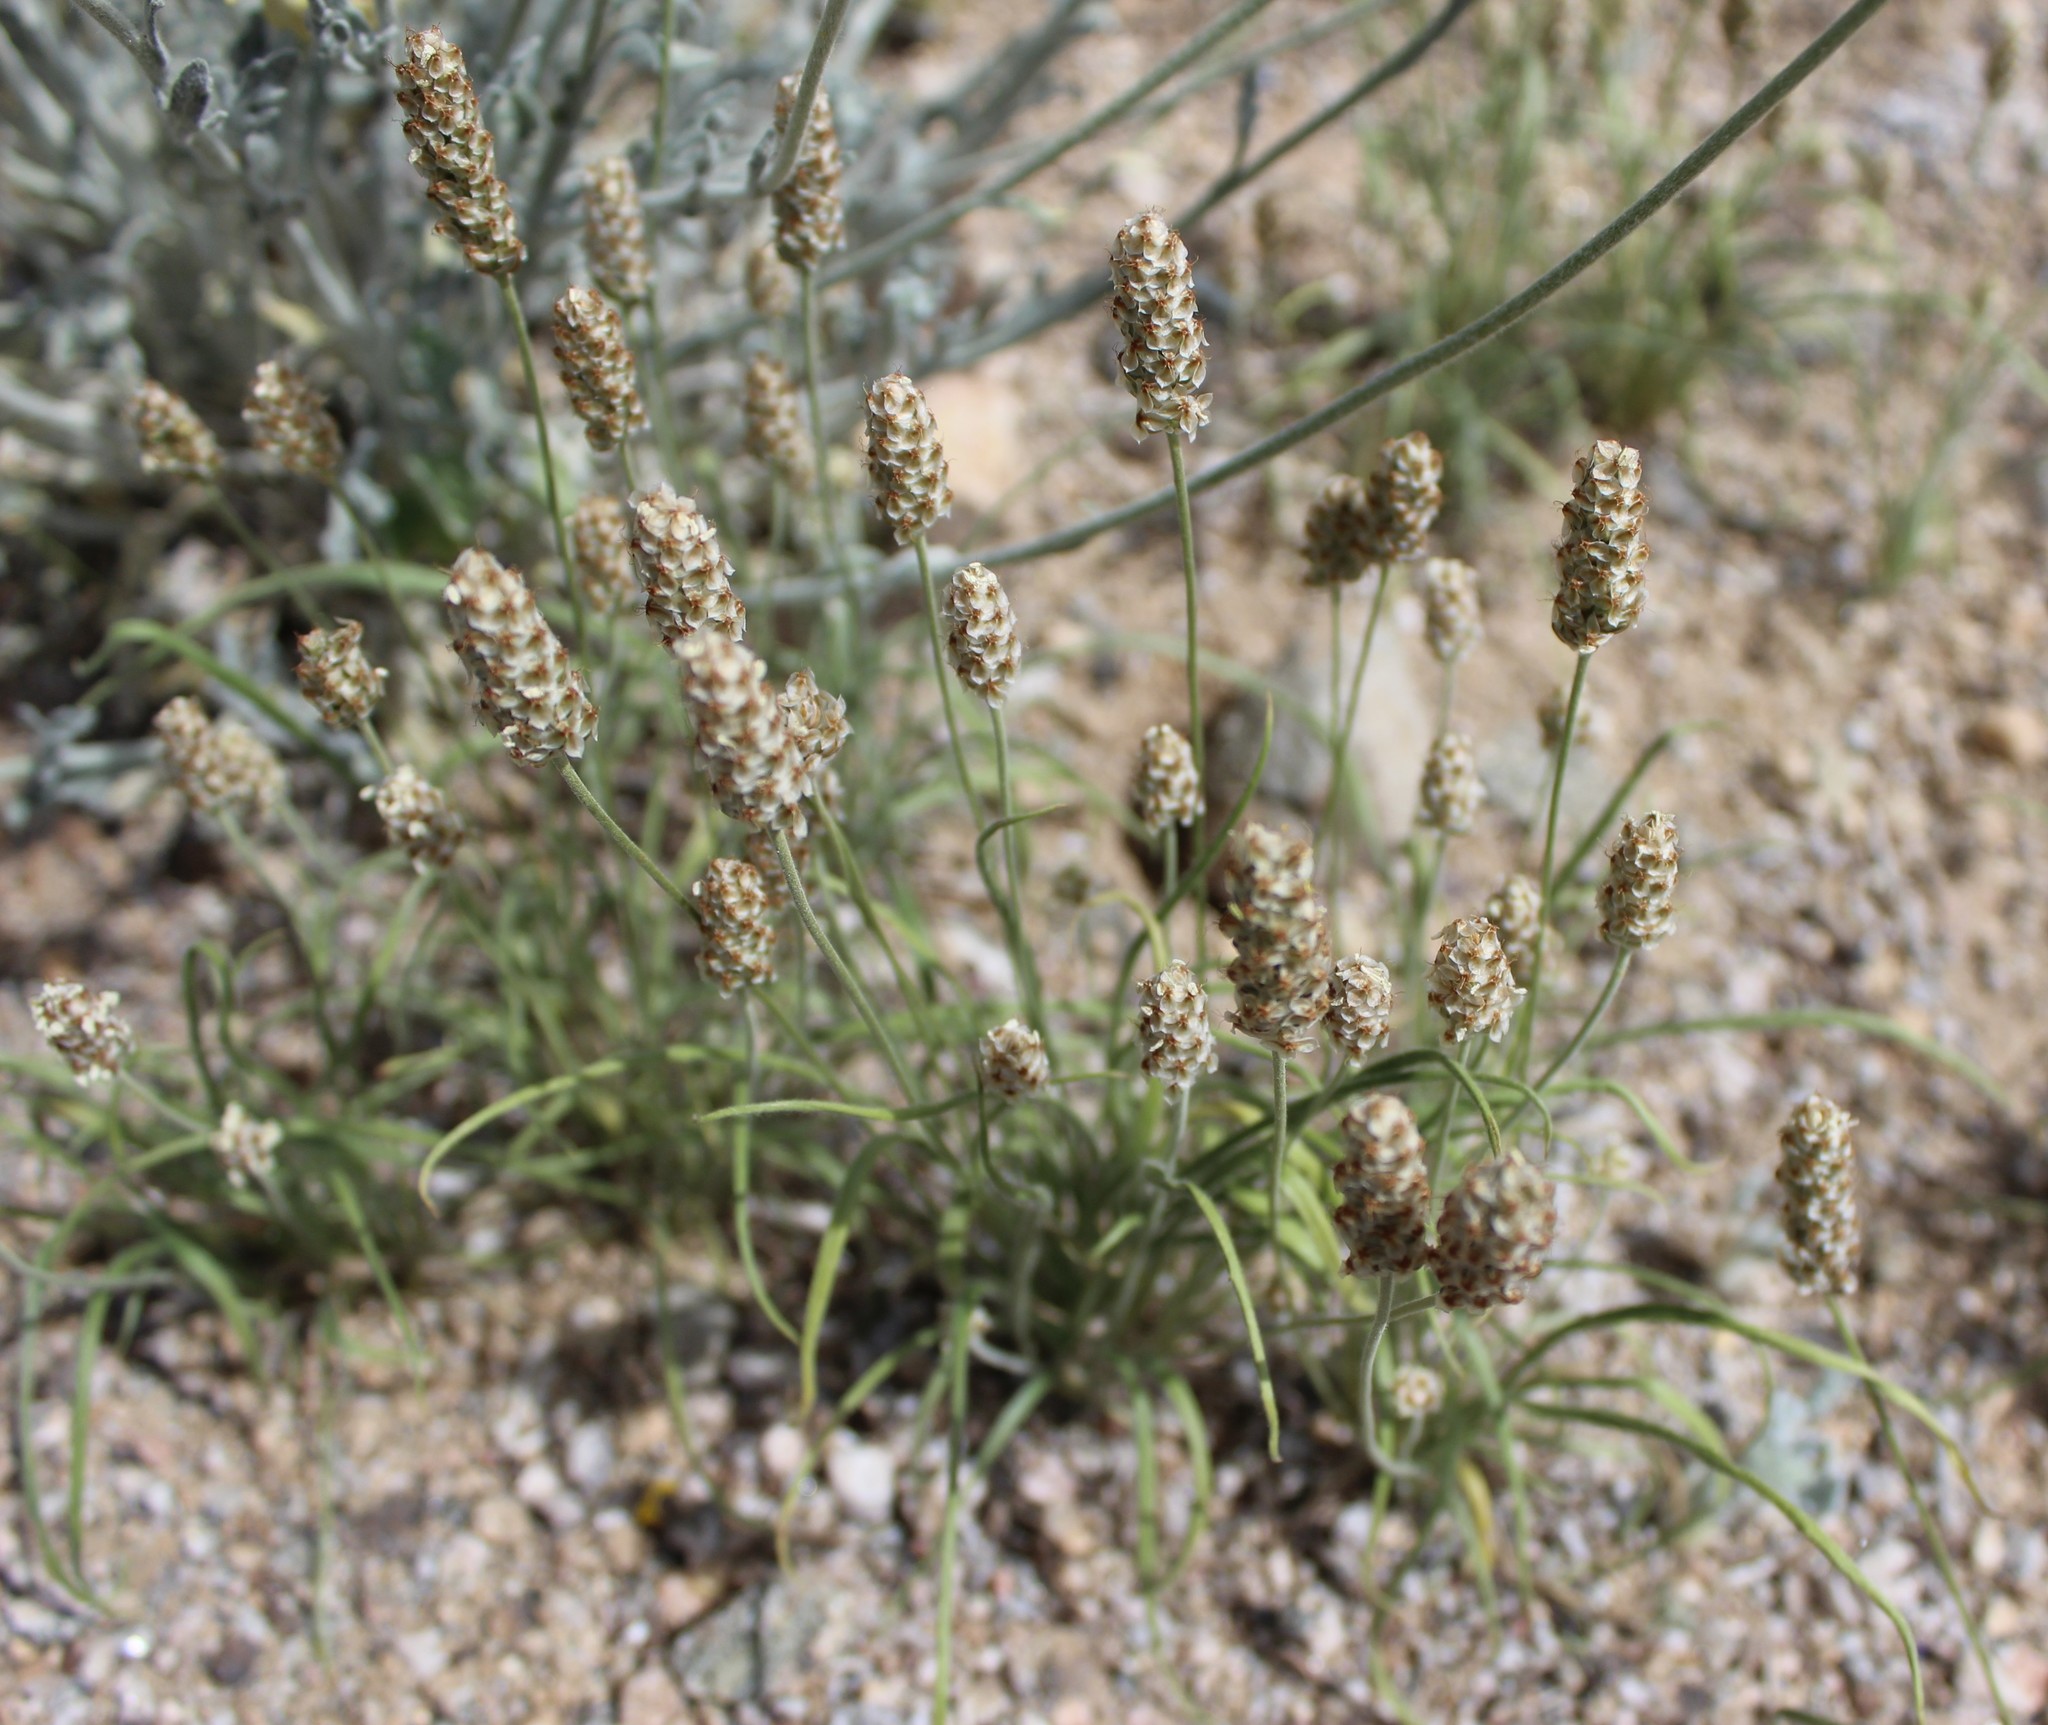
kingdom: Plantae
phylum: Tracheophyta
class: Magnoliopsida
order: Lamiales
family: Plantaginaceae
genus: Plantago
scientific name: Plantago ovata
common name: Blond plantain
